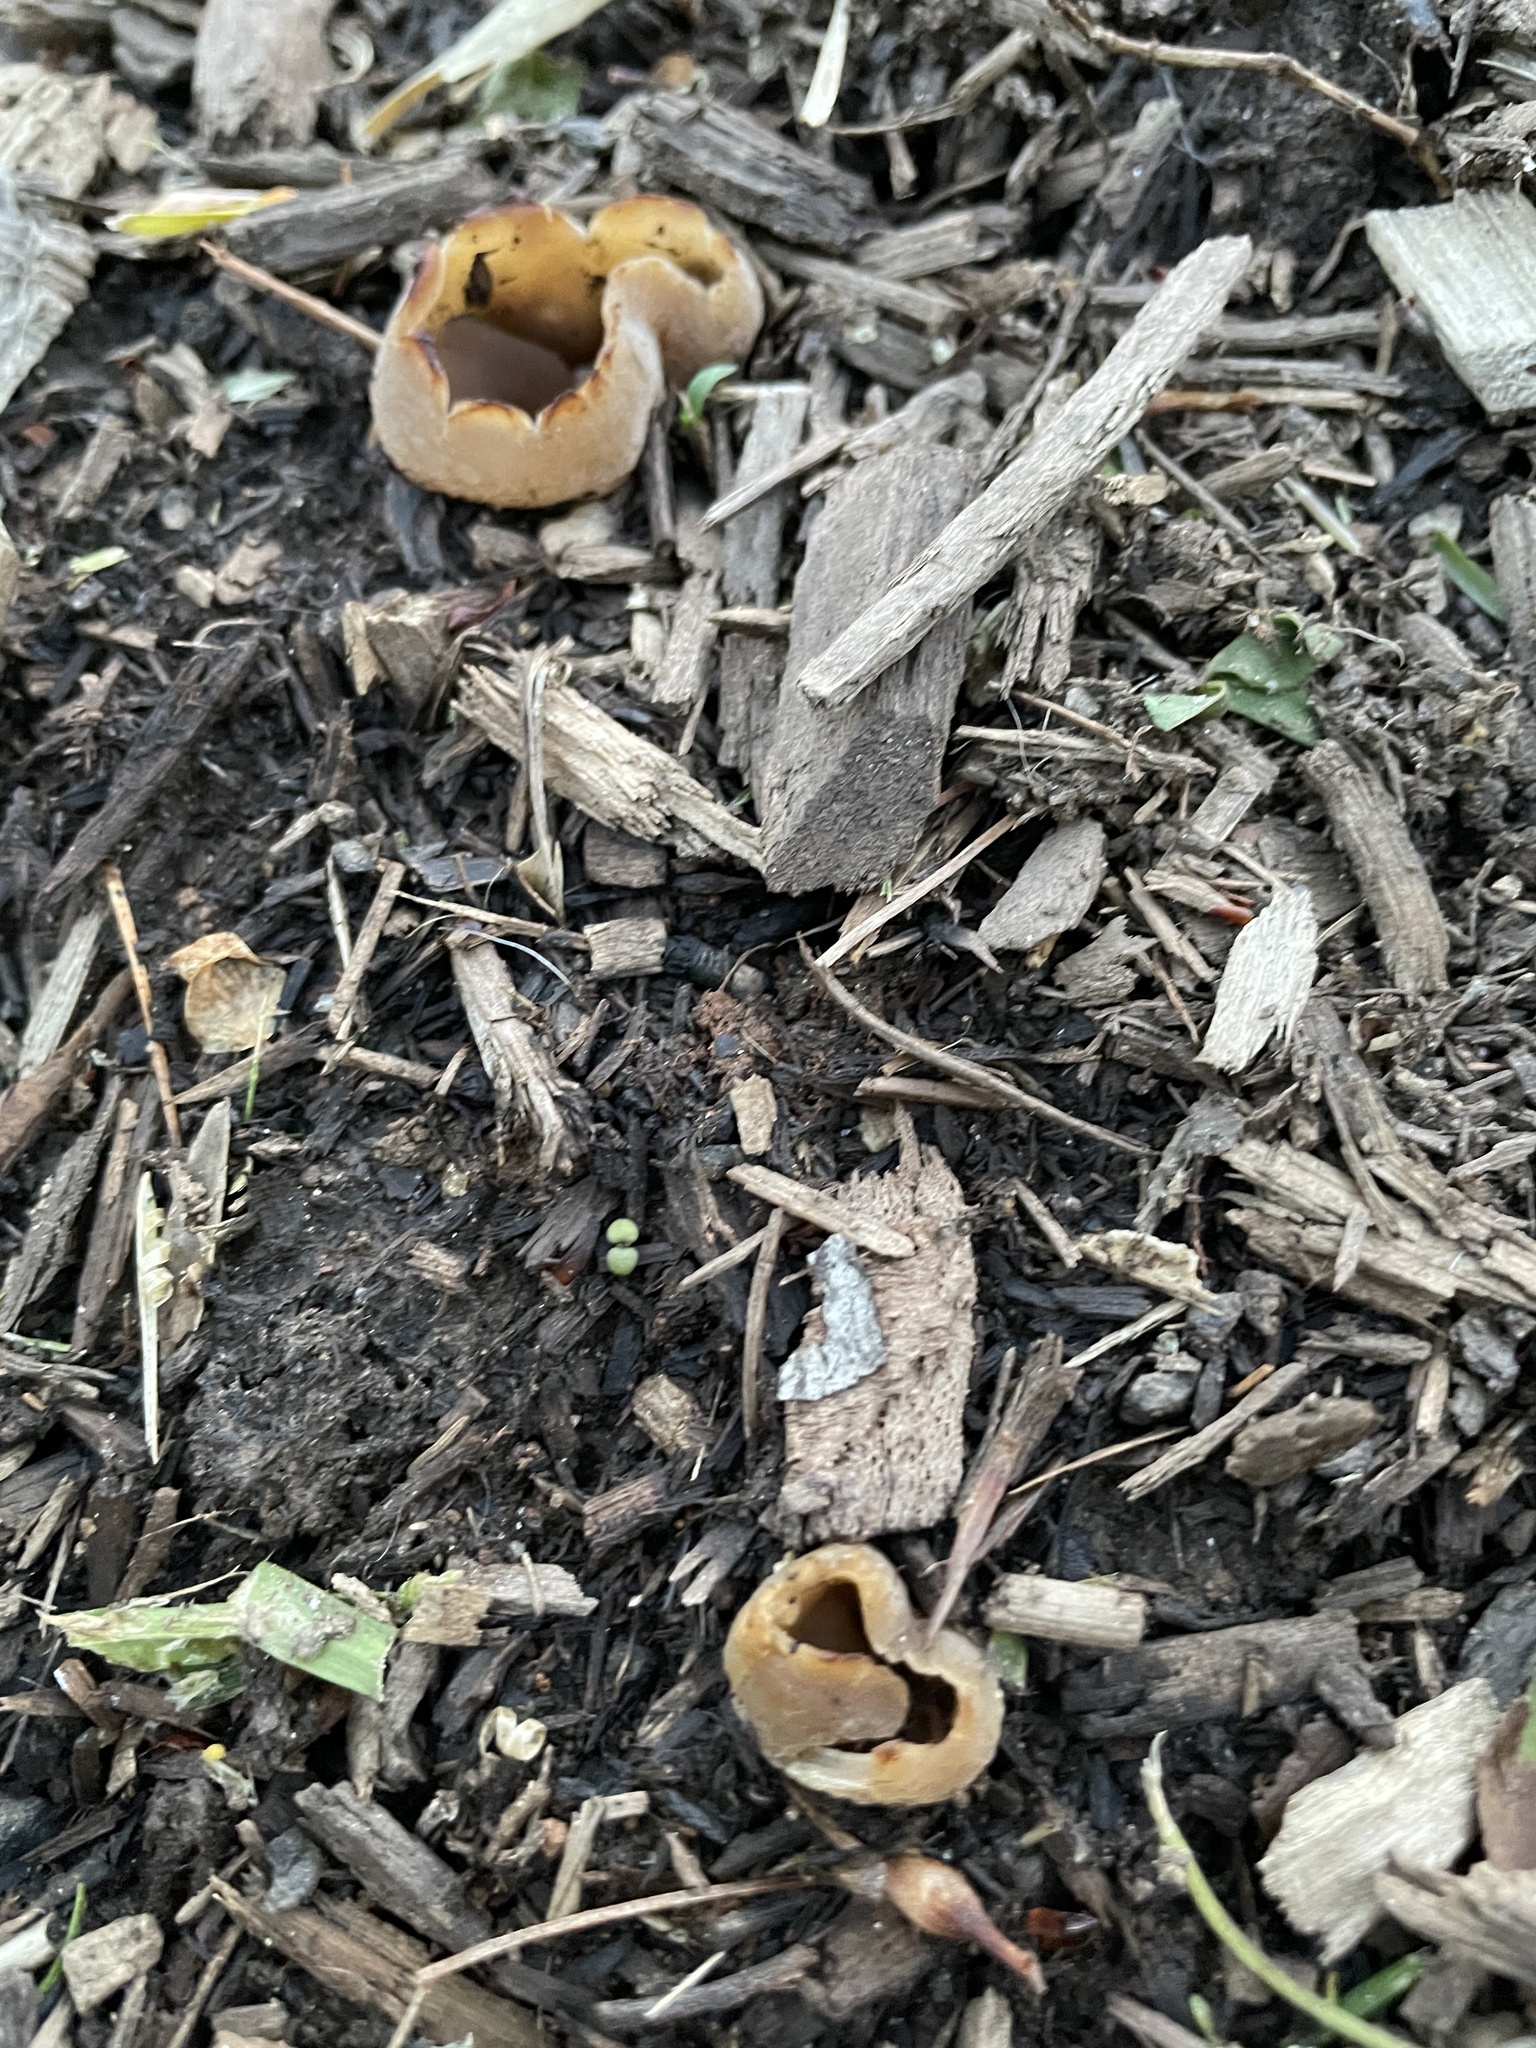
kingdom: Fungi
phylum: Ascomycota
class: Pezizomycetes
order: Pezizales
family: Pezizaceae
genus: Peziza
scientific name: Peziza vesiculosa
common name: Blistered cup
